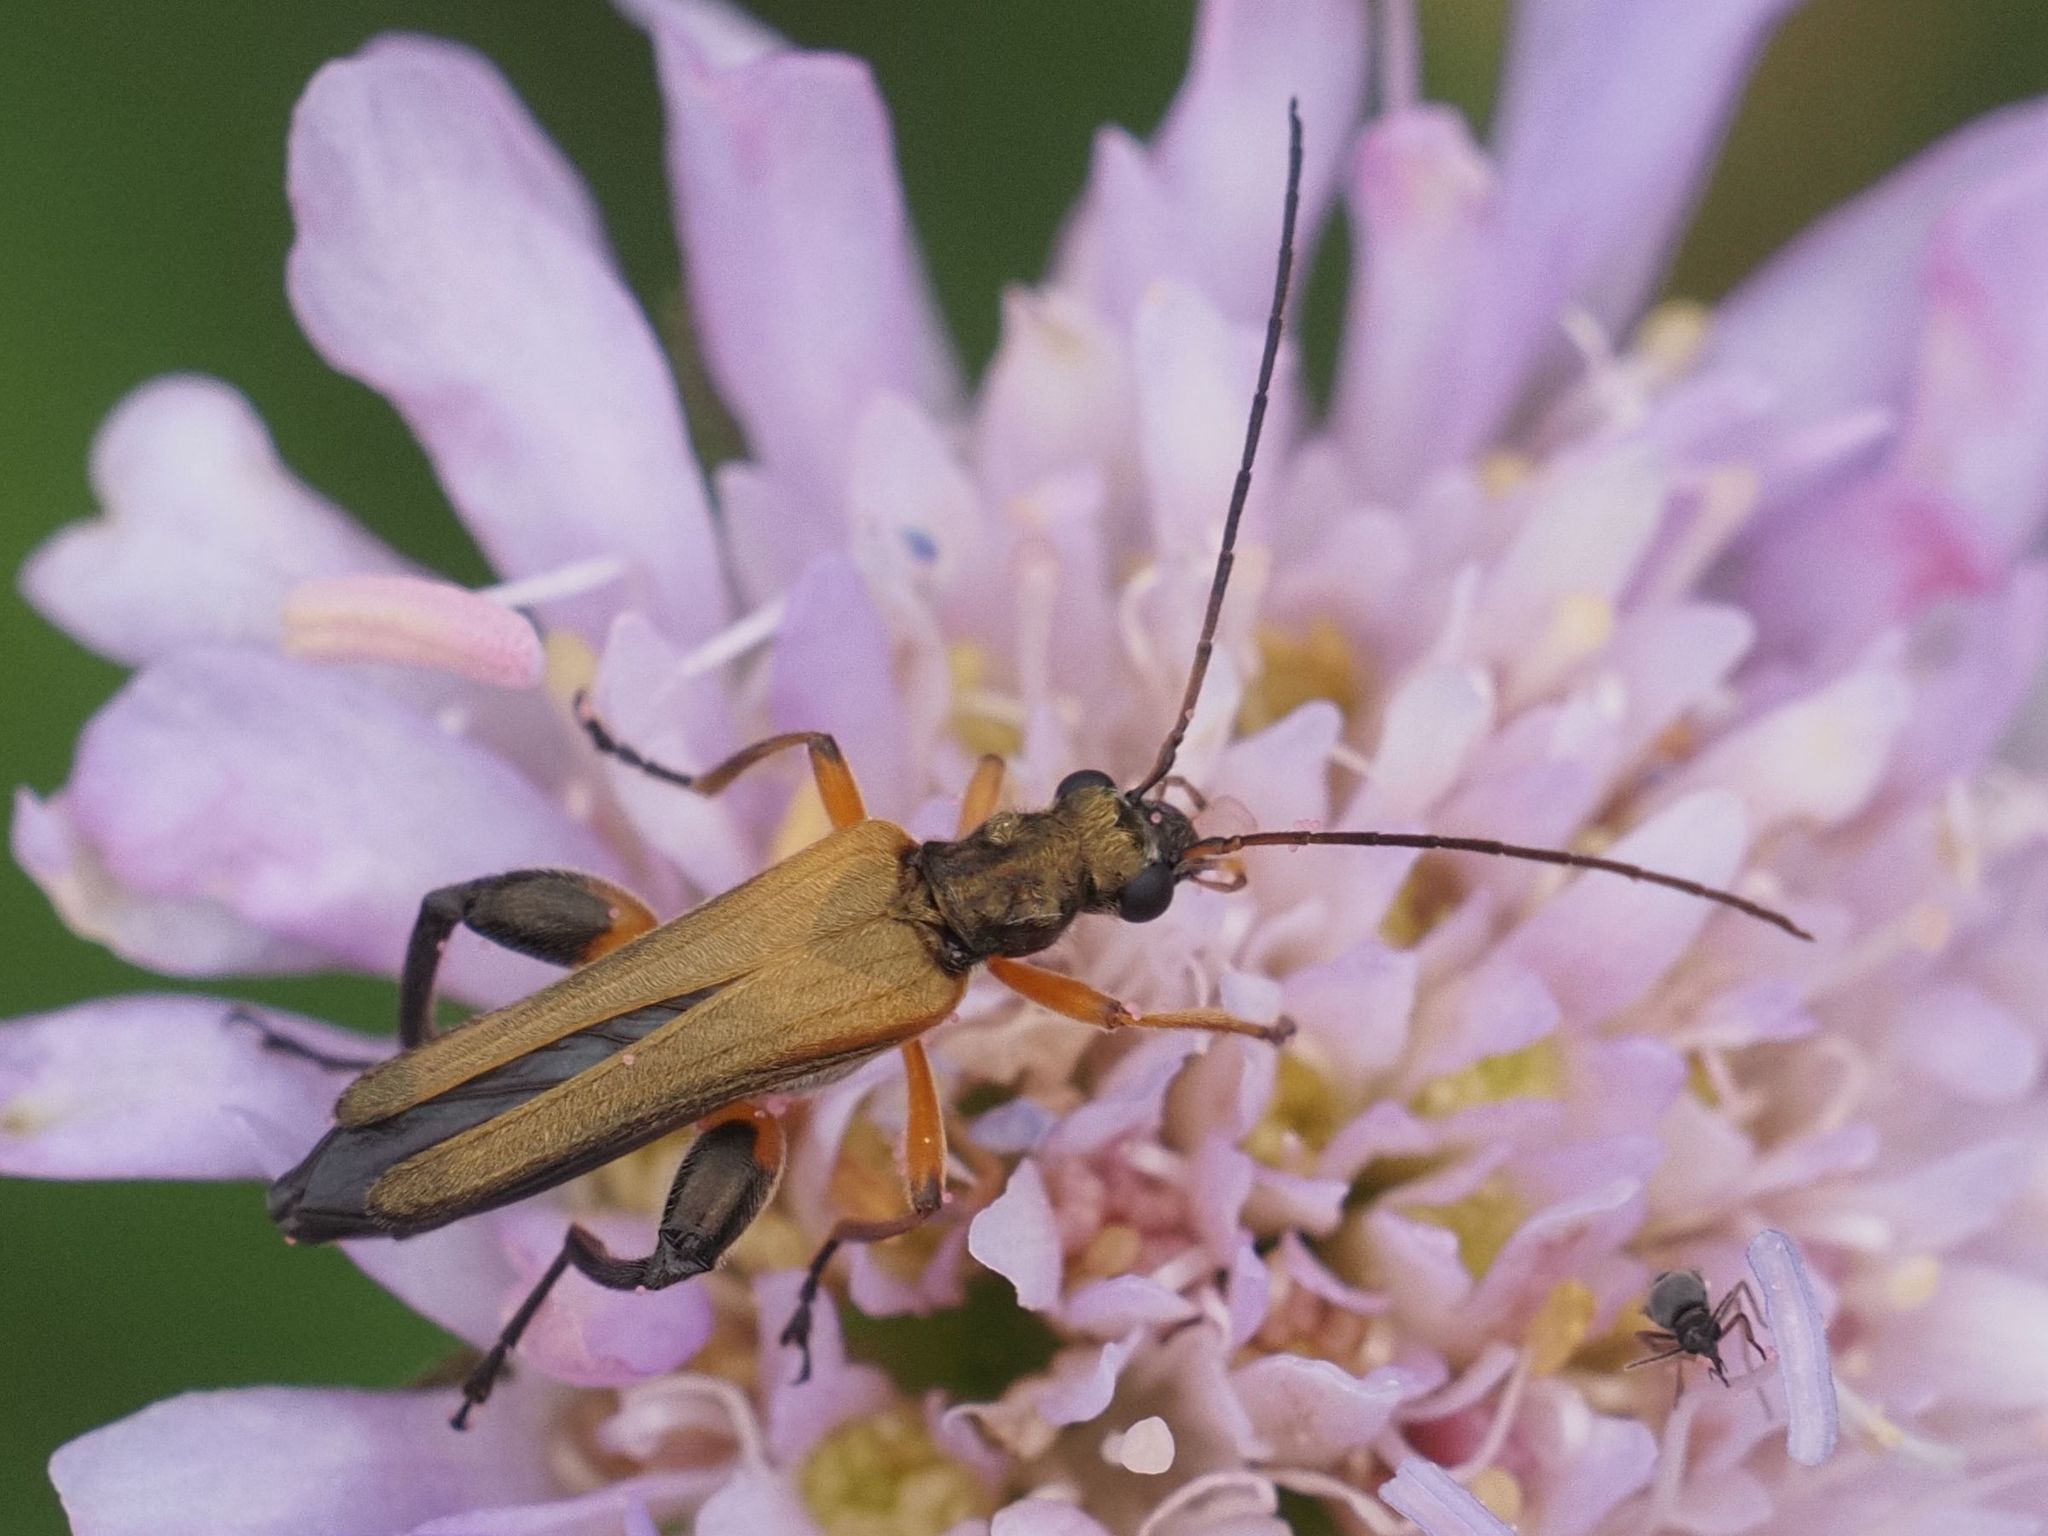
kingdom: Animalia
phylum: Arthropoda
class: Insecta
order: Coleoptera
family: Oedemeridae
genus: Oedemera
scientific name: Oedemera podagrariae
